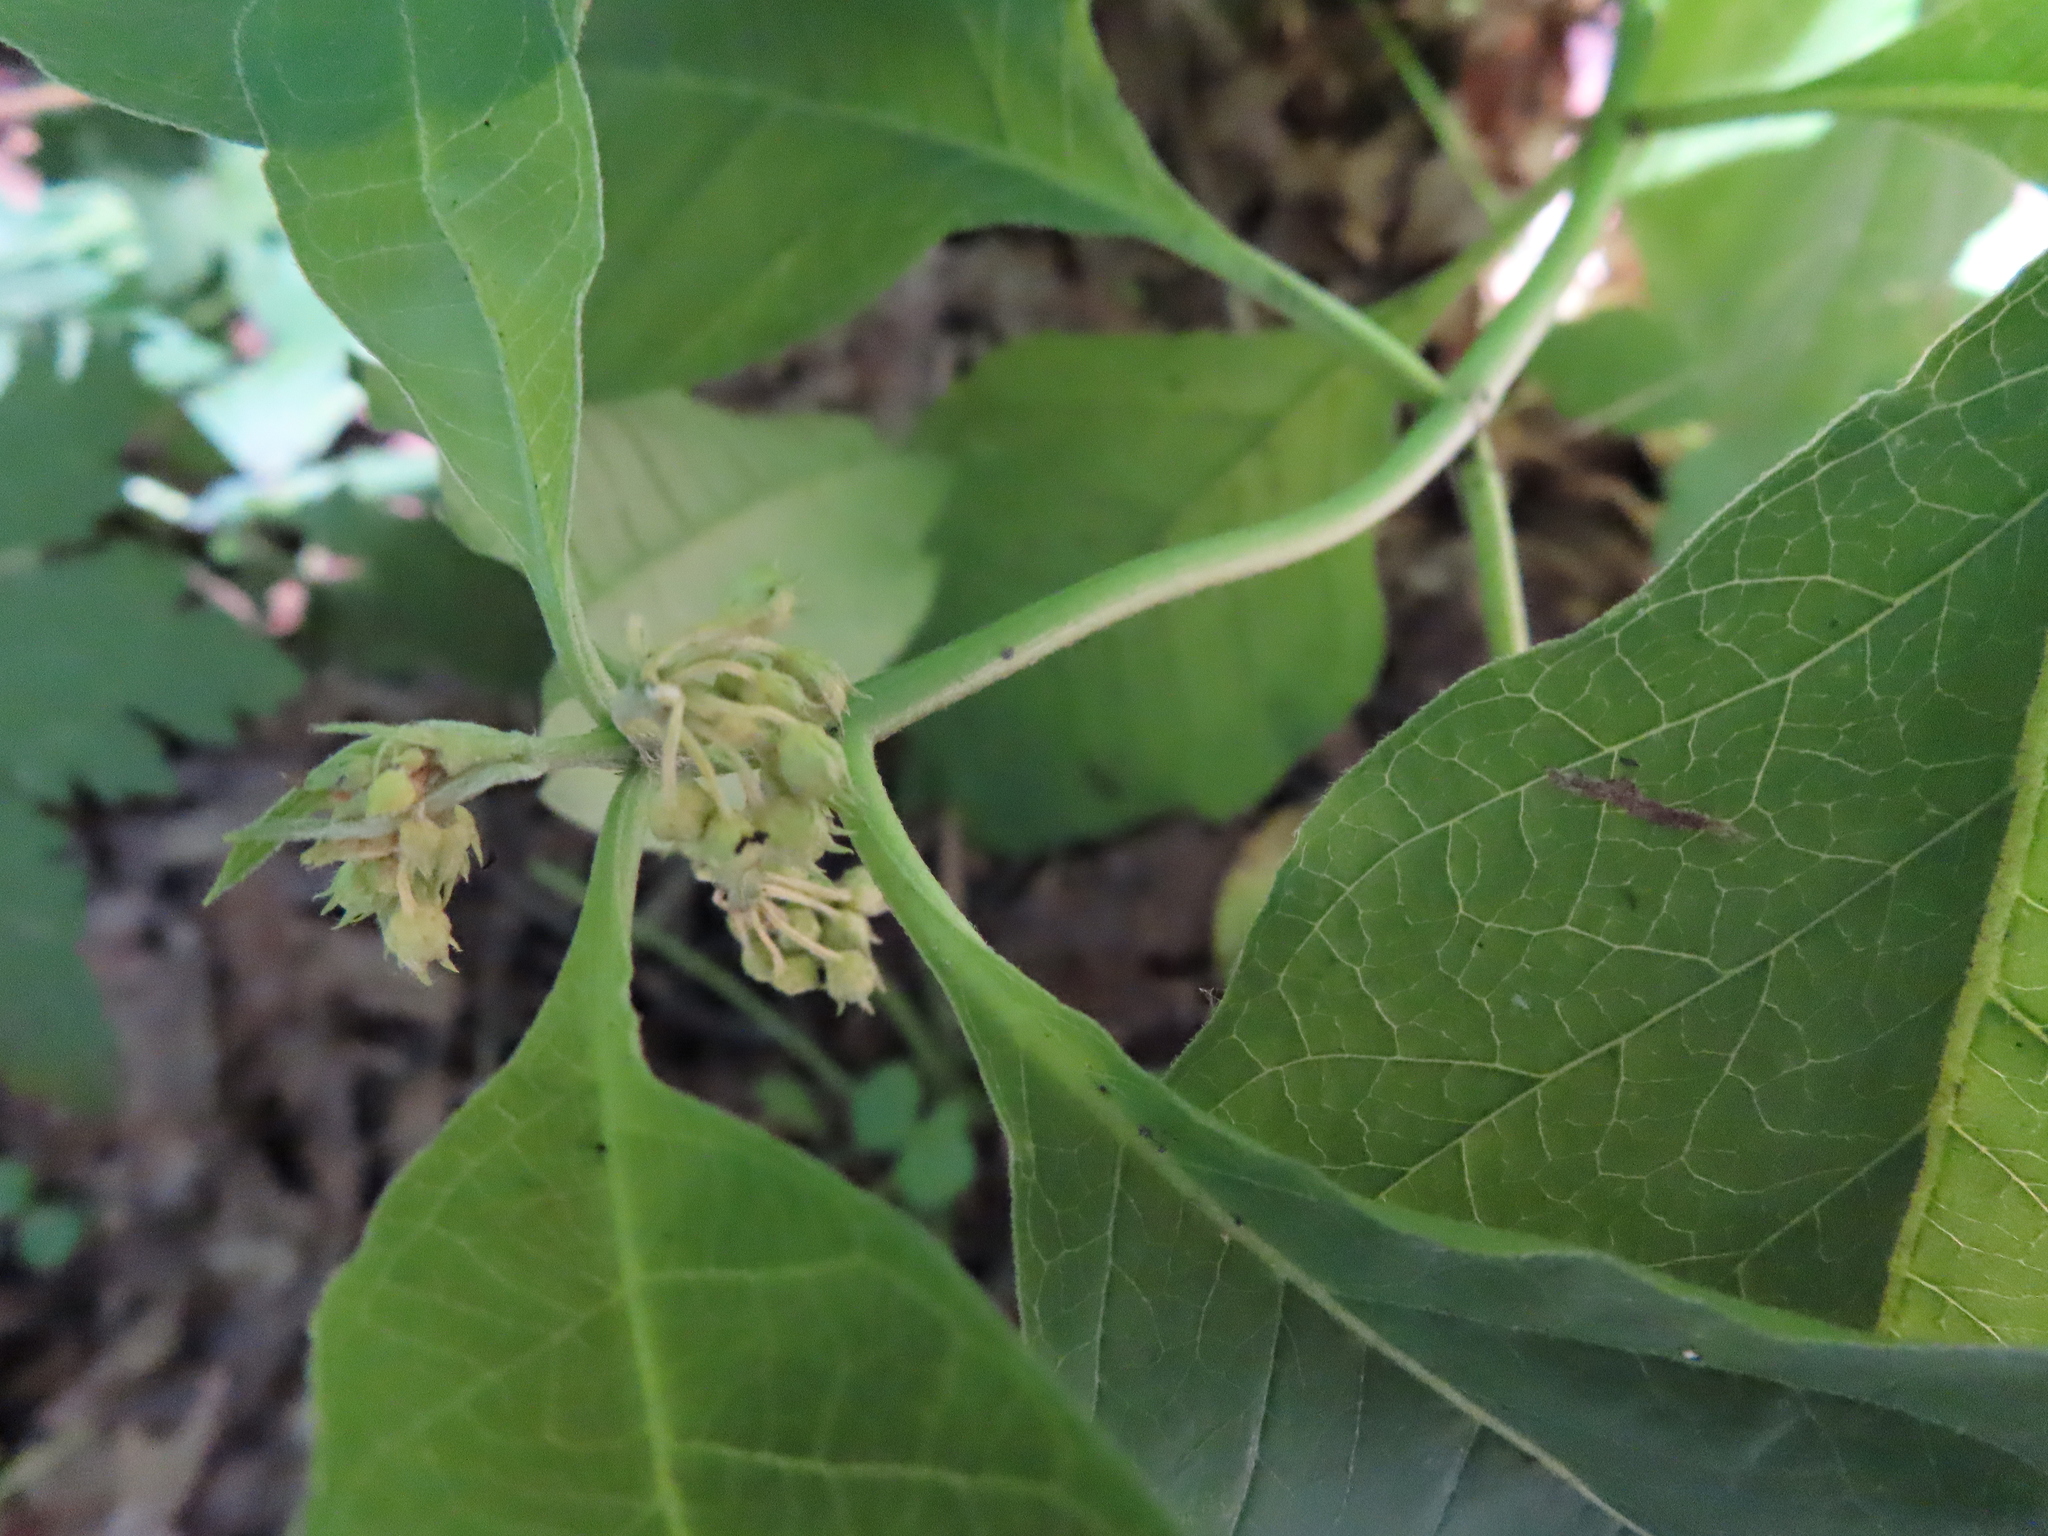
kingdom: Plantae
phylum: Tracheophyta
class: Magnoliopsida
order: Gentianales
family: Apocynaceae
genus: Asclepias
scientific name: Asclepias exaltata
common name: Poke milkweed
